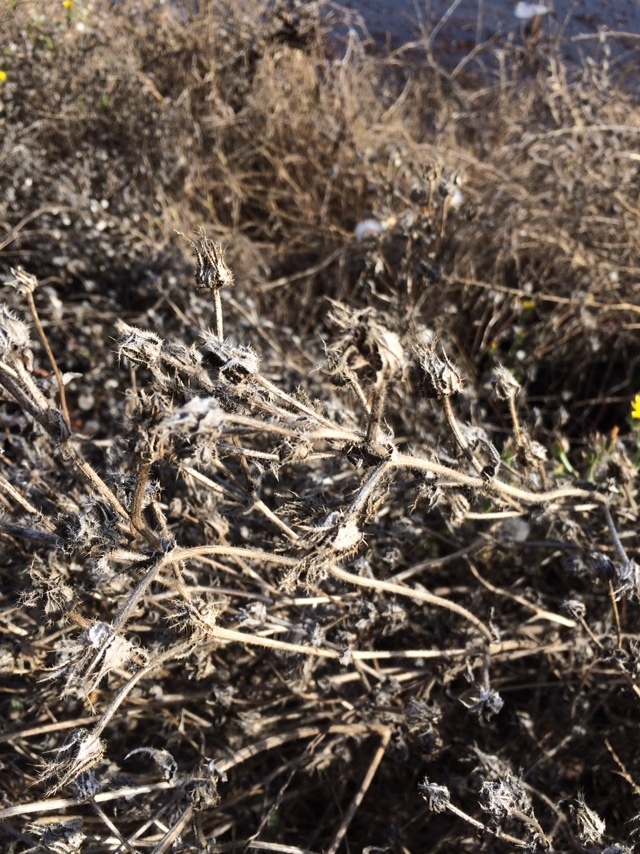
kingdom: Plantae
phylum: Tracheophyta
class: Magnoliopsida
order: Asterales
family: Asteraceae
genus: Helminthotheca
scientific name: Helminthotheca echioides
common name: Ox-tongue
